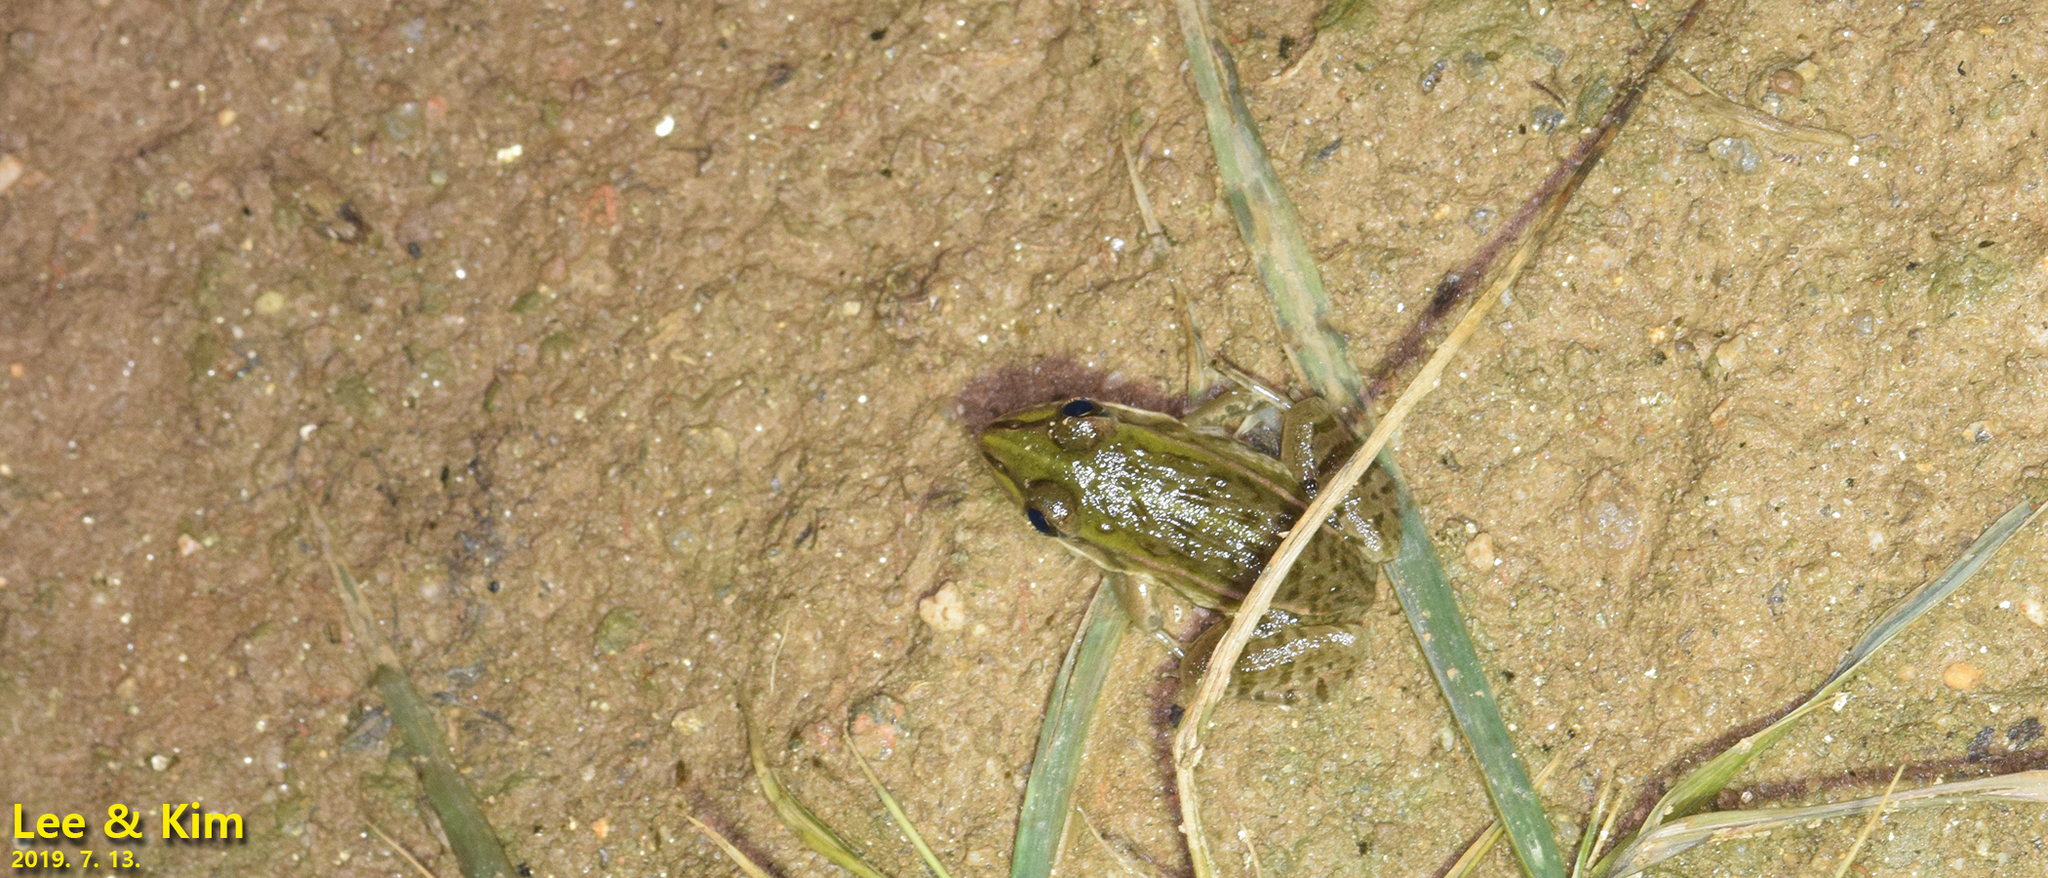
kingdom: Animalia
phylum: Chordata
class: Amphibia
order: Anura
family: Ranidae
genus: Pelophylax
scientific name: Pelophylax nigromaculatus
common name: Black-spotted pond frog
